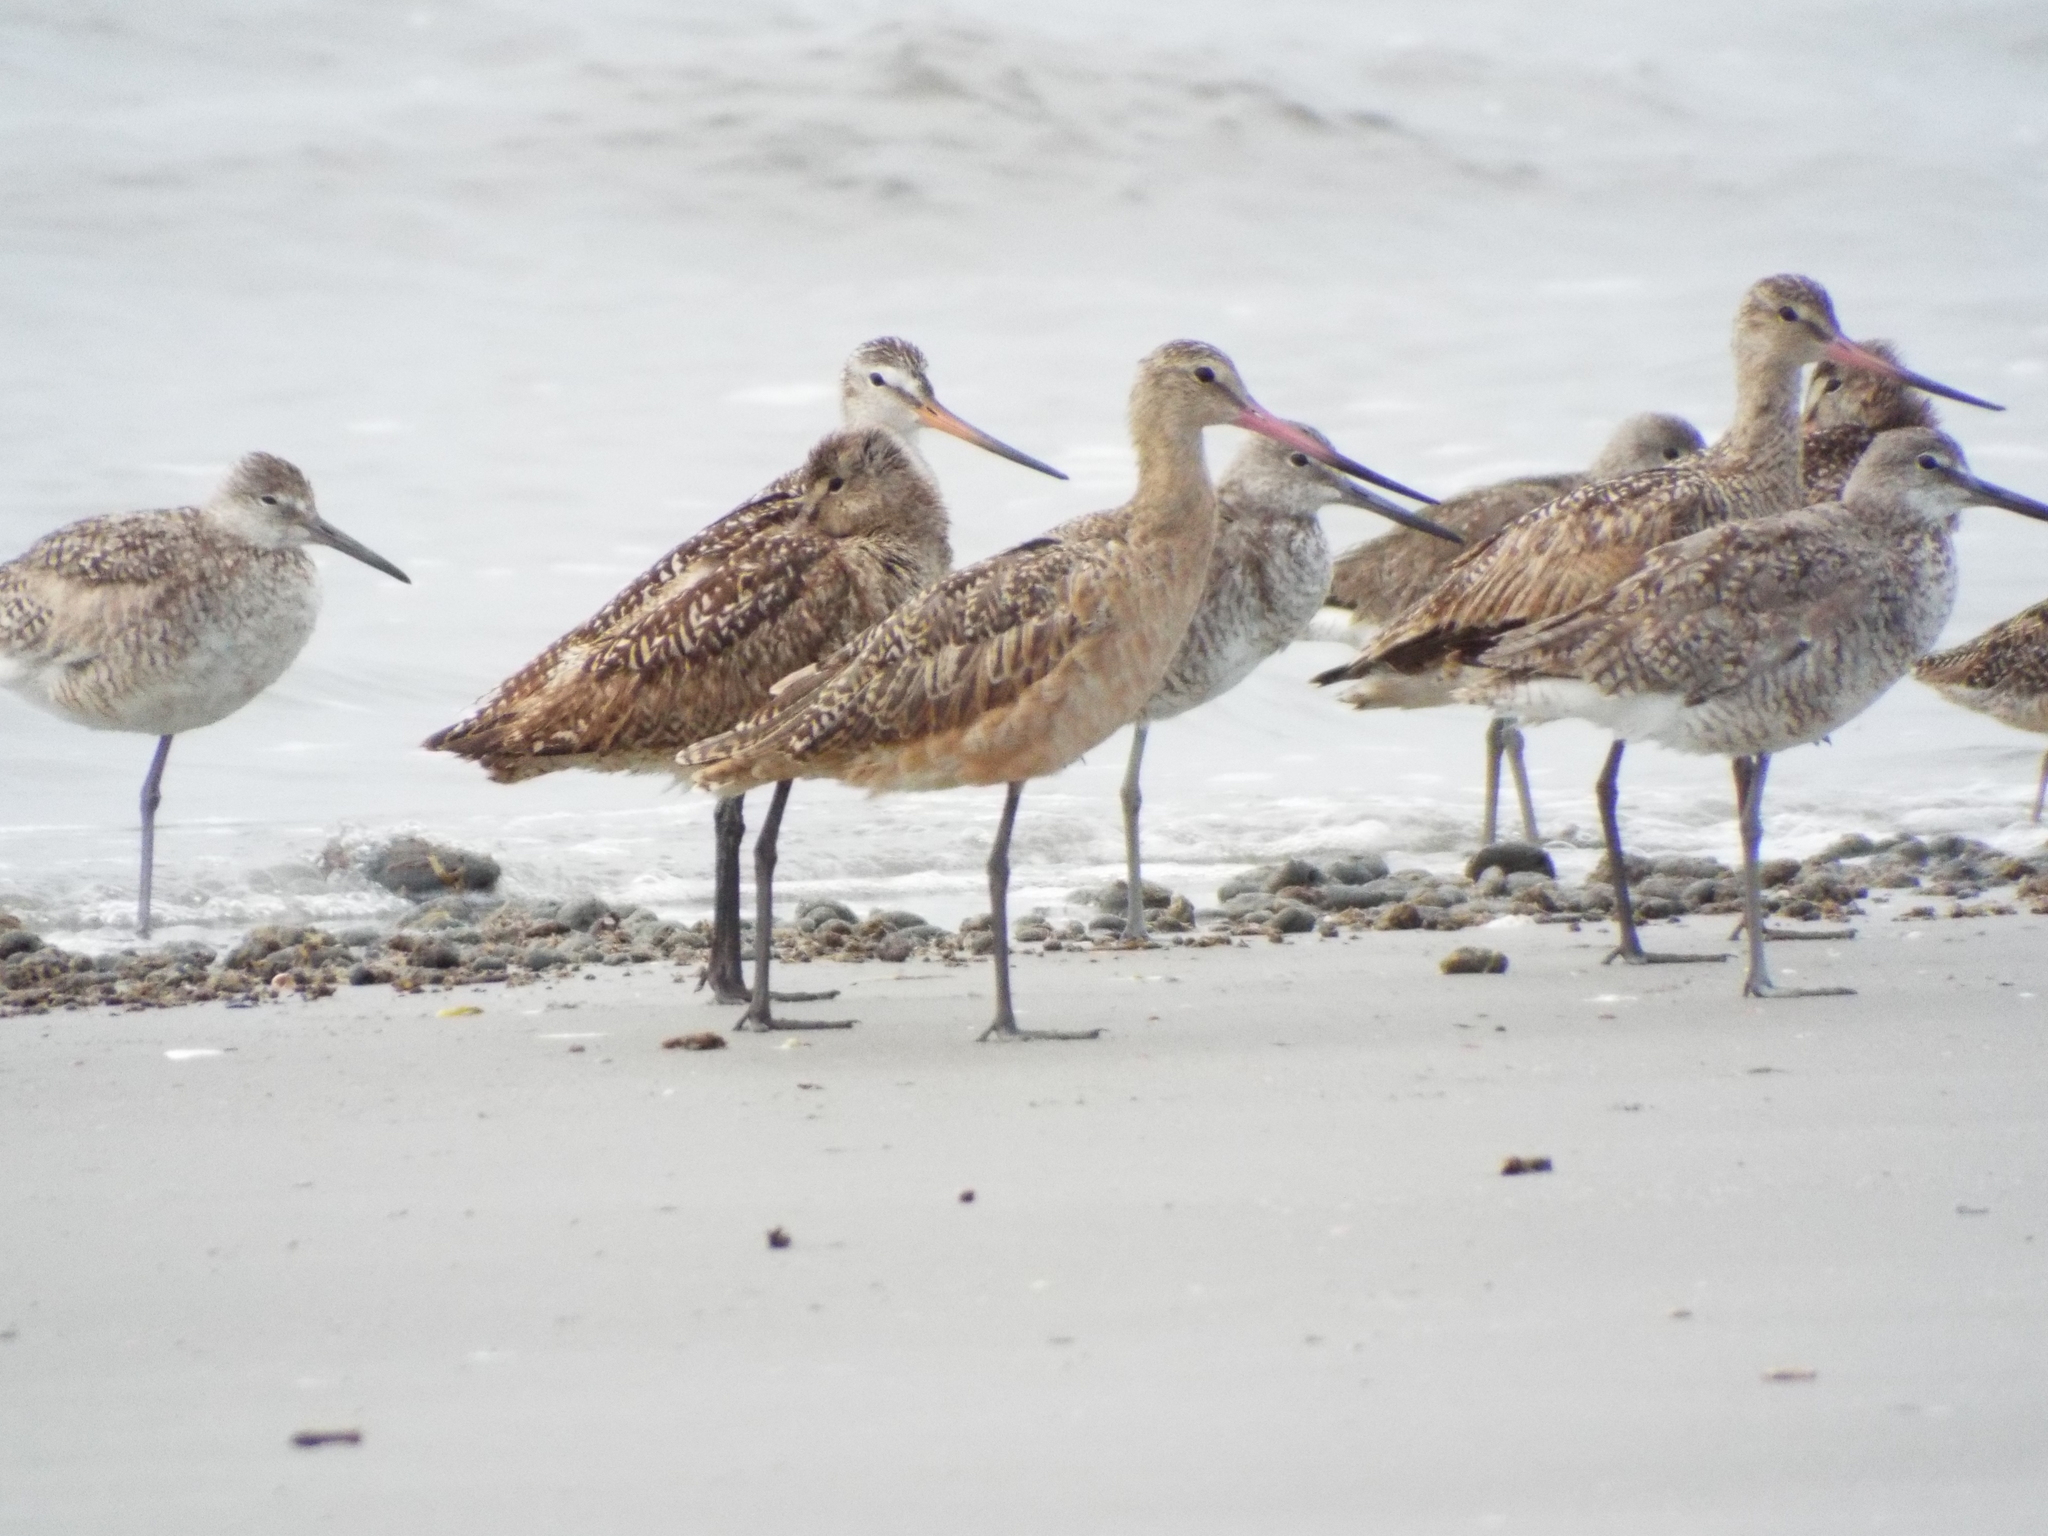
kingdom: Animalia
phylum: Chordata
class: Aves
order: Charadriiformes
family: Scolopacidae
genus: Limosa
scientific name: Limosa fedoa
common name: Marbled godwit
